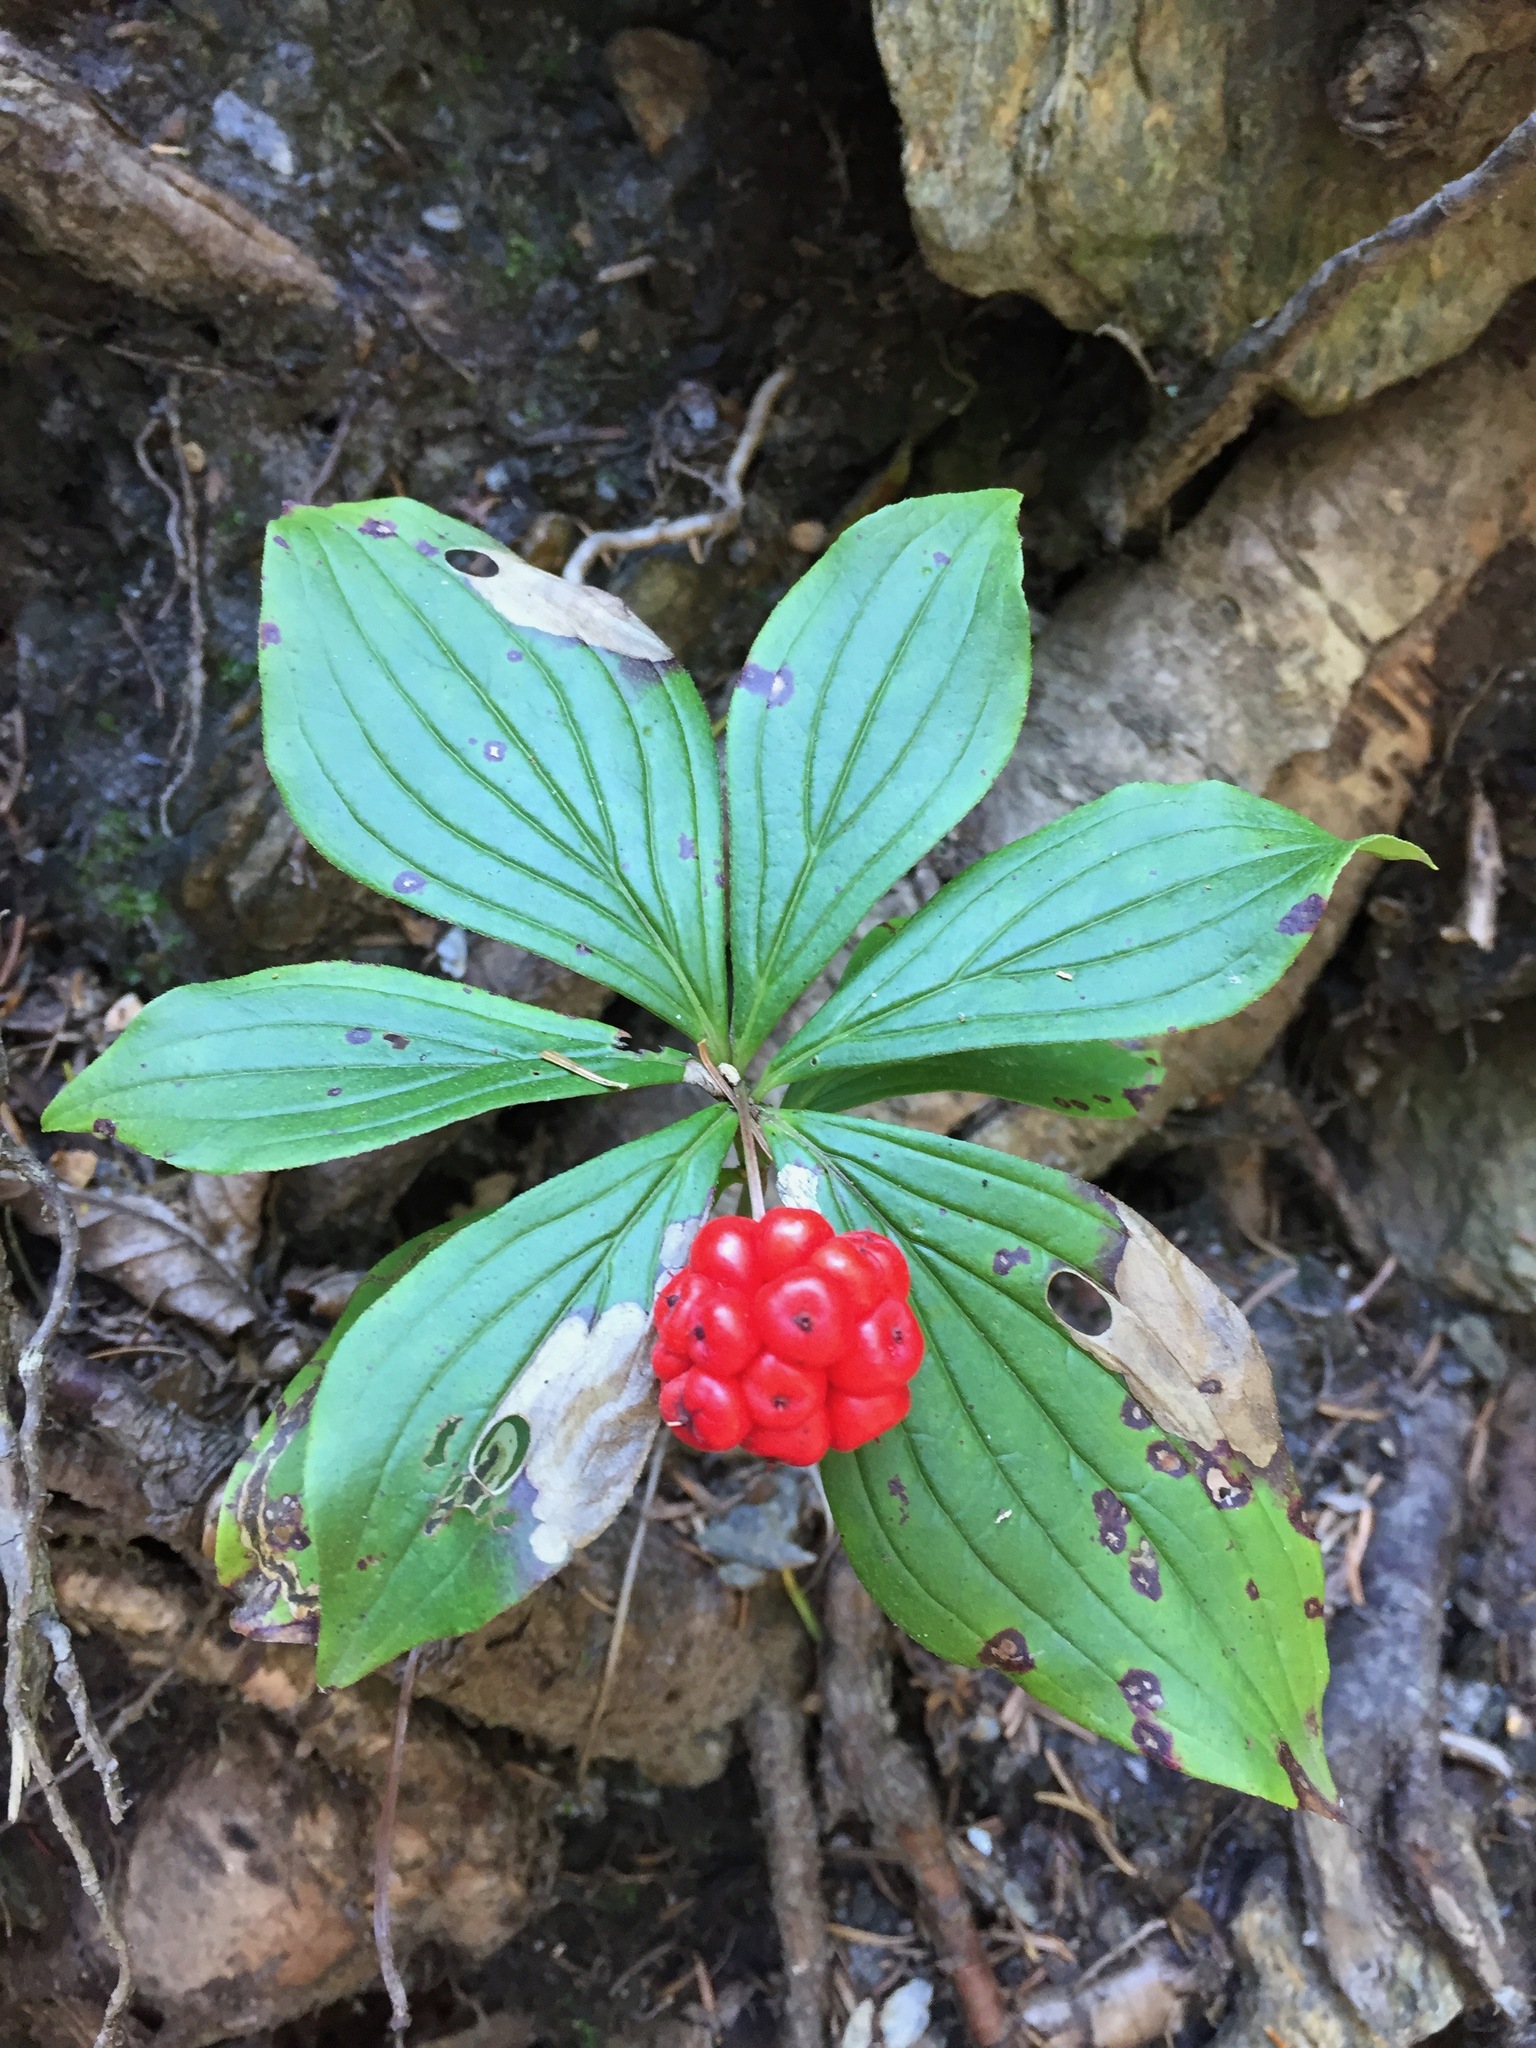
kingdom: Plantae
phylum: Tracheophyta
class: Magnoliopsida
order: Cornales
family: Cornaceae
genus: Cornus
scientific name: Cornus canadensis
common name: Creeping dogwood
